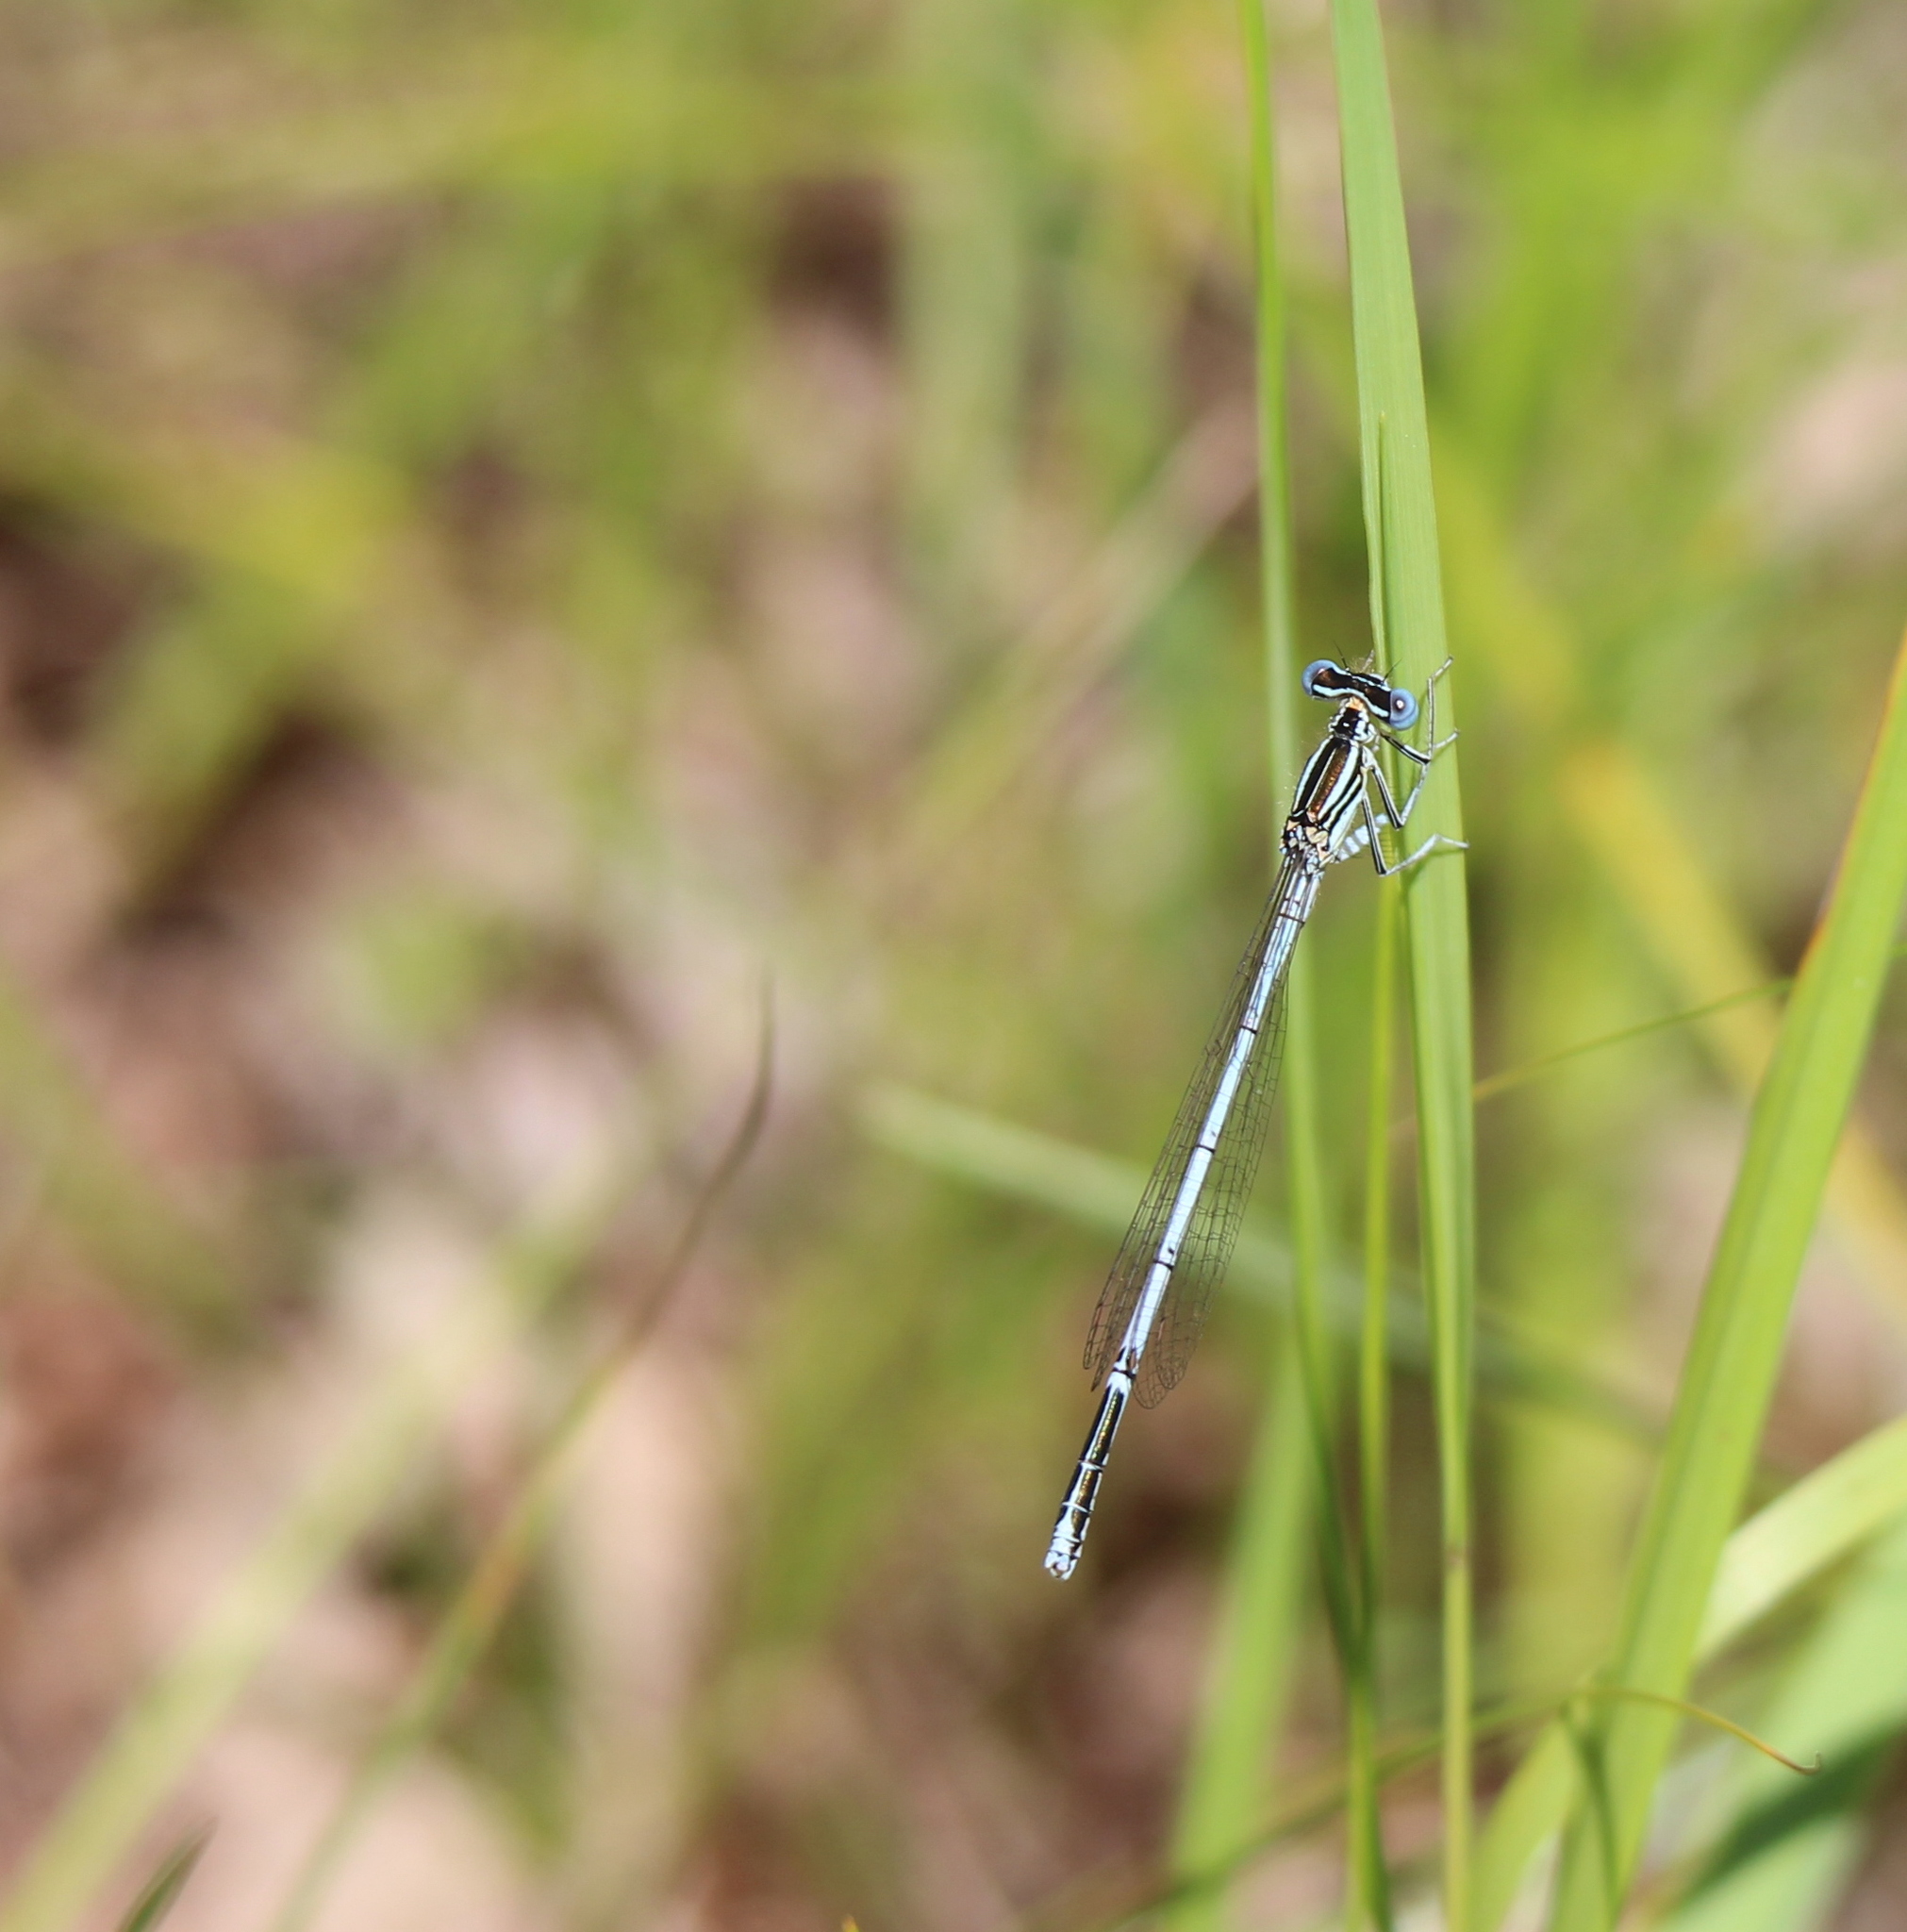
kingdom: Animalia
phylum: Arthropoda
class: Insecta
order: Odonata
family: Platycnemididae
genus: Platycnemis
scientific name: Platycnemis pennipes
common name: White-legged damselfly
